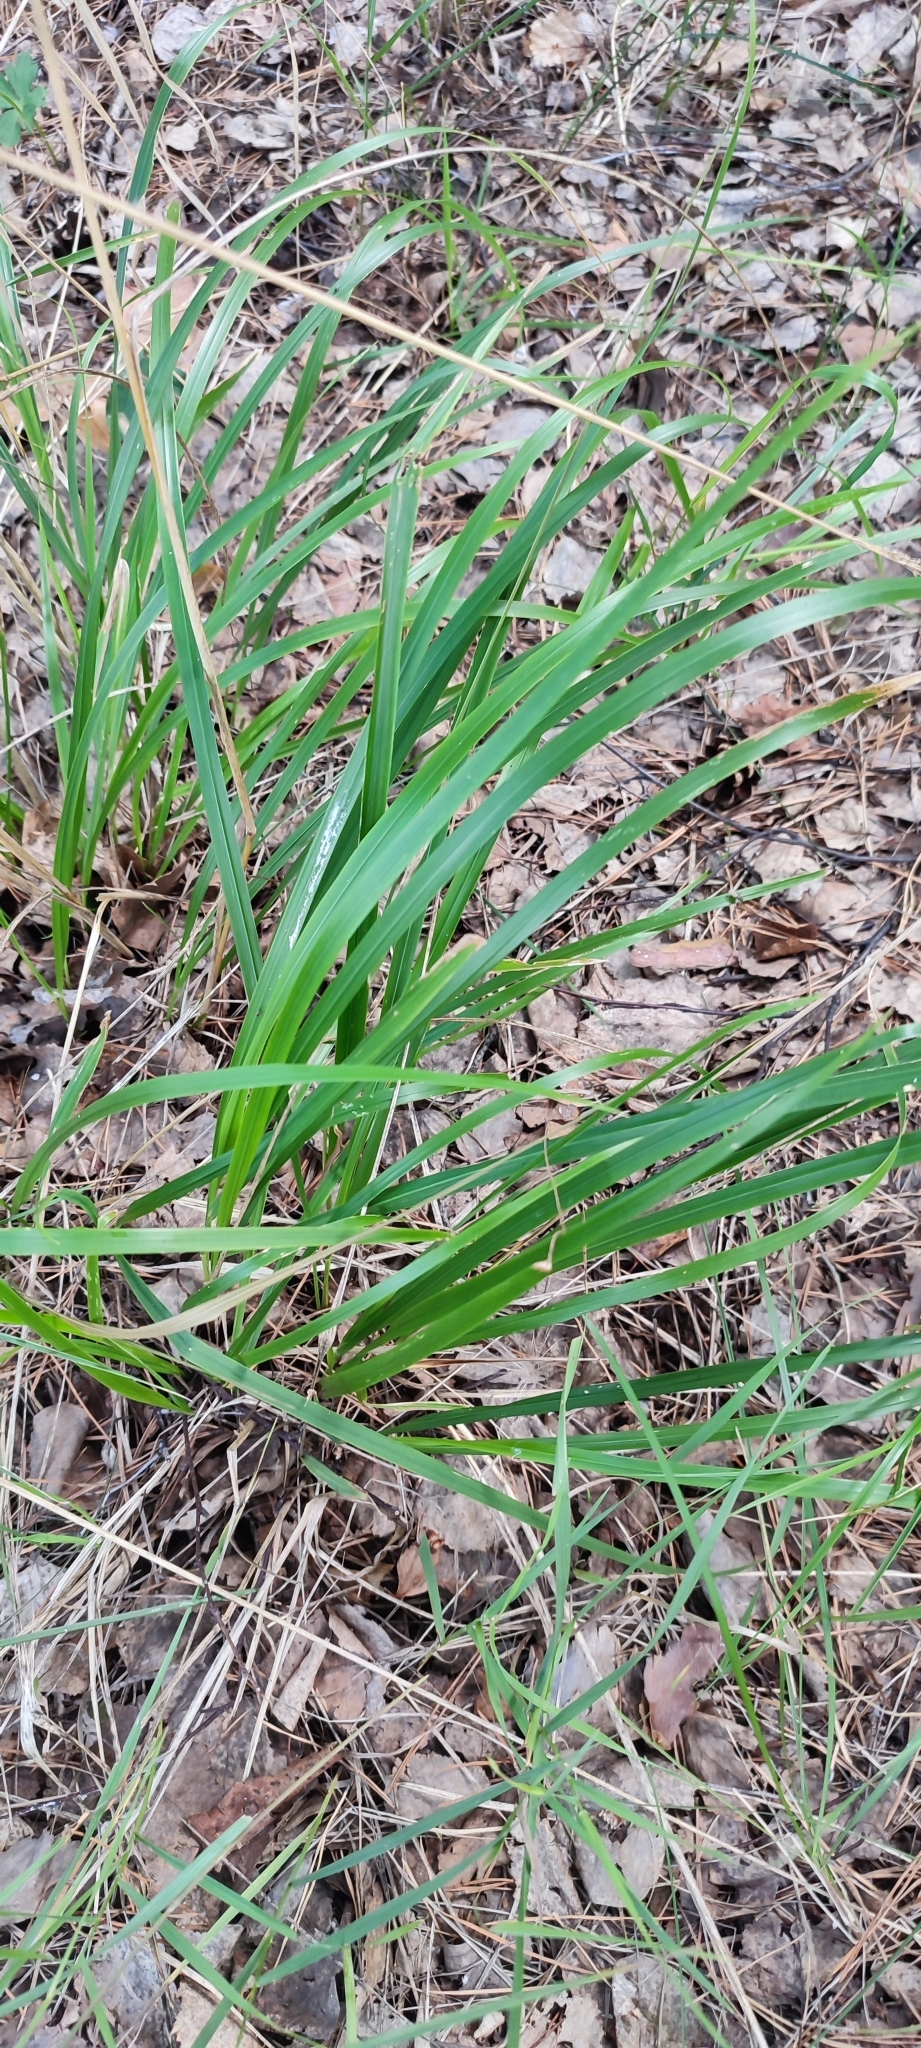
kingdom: Plantae
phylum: Tracheophyta
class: Liliopsida
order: Poales
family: Poaceae
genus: Calamagrostis
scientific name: Calamagrostis arundinacea
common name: Metskastik
